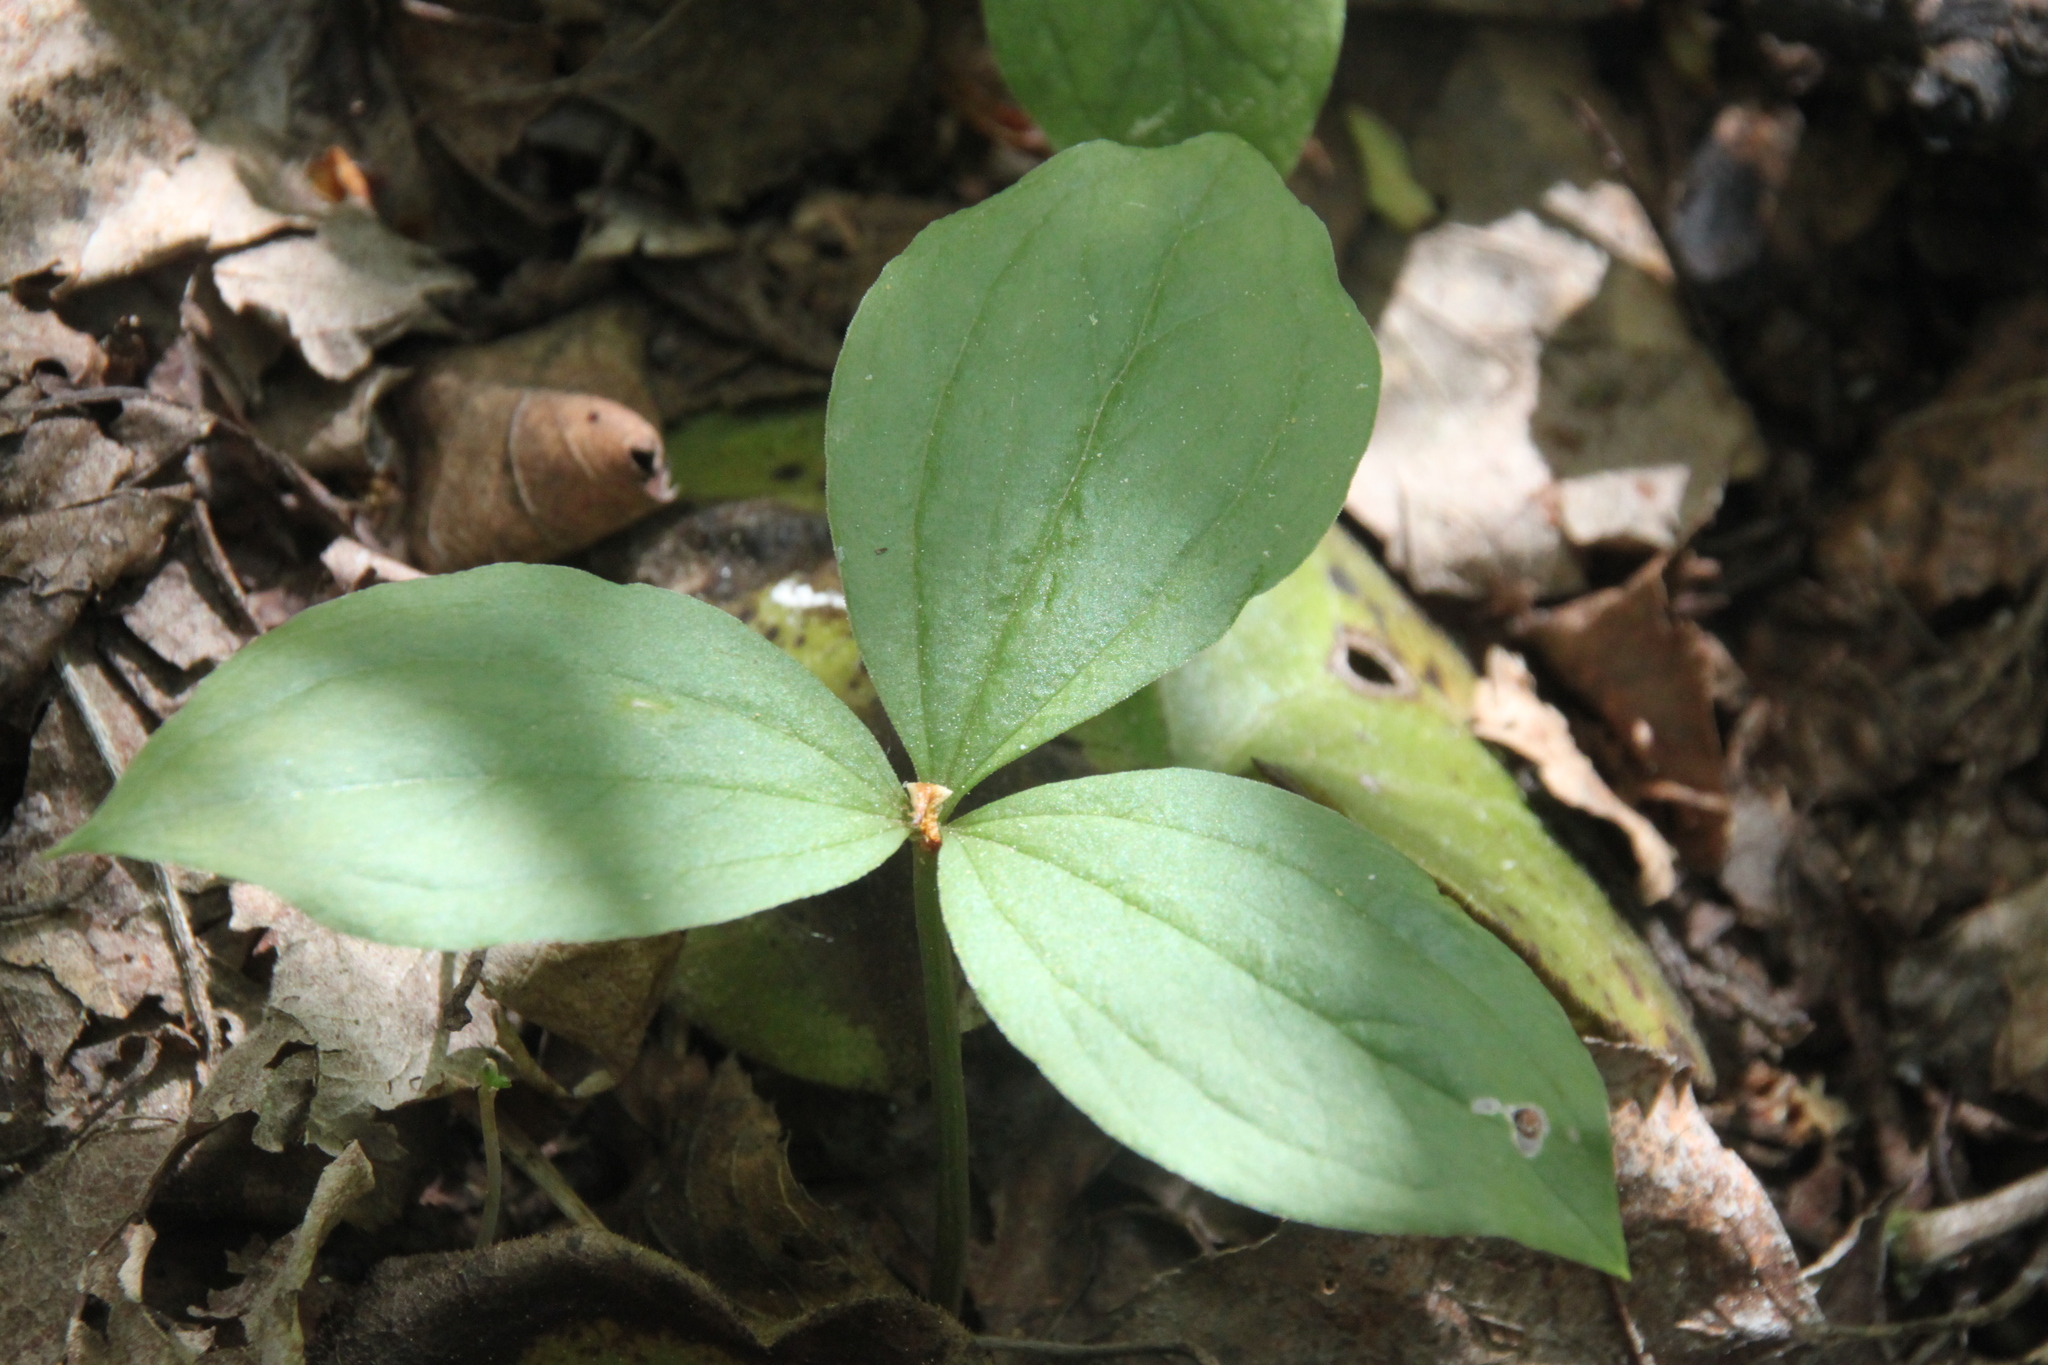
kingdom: Plantae
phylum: Tracheophyta
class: Liliopsida
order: Liliales
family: Melanthiaceae
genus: Paris
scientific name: Paris quadrifolia
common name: Herb-paris
